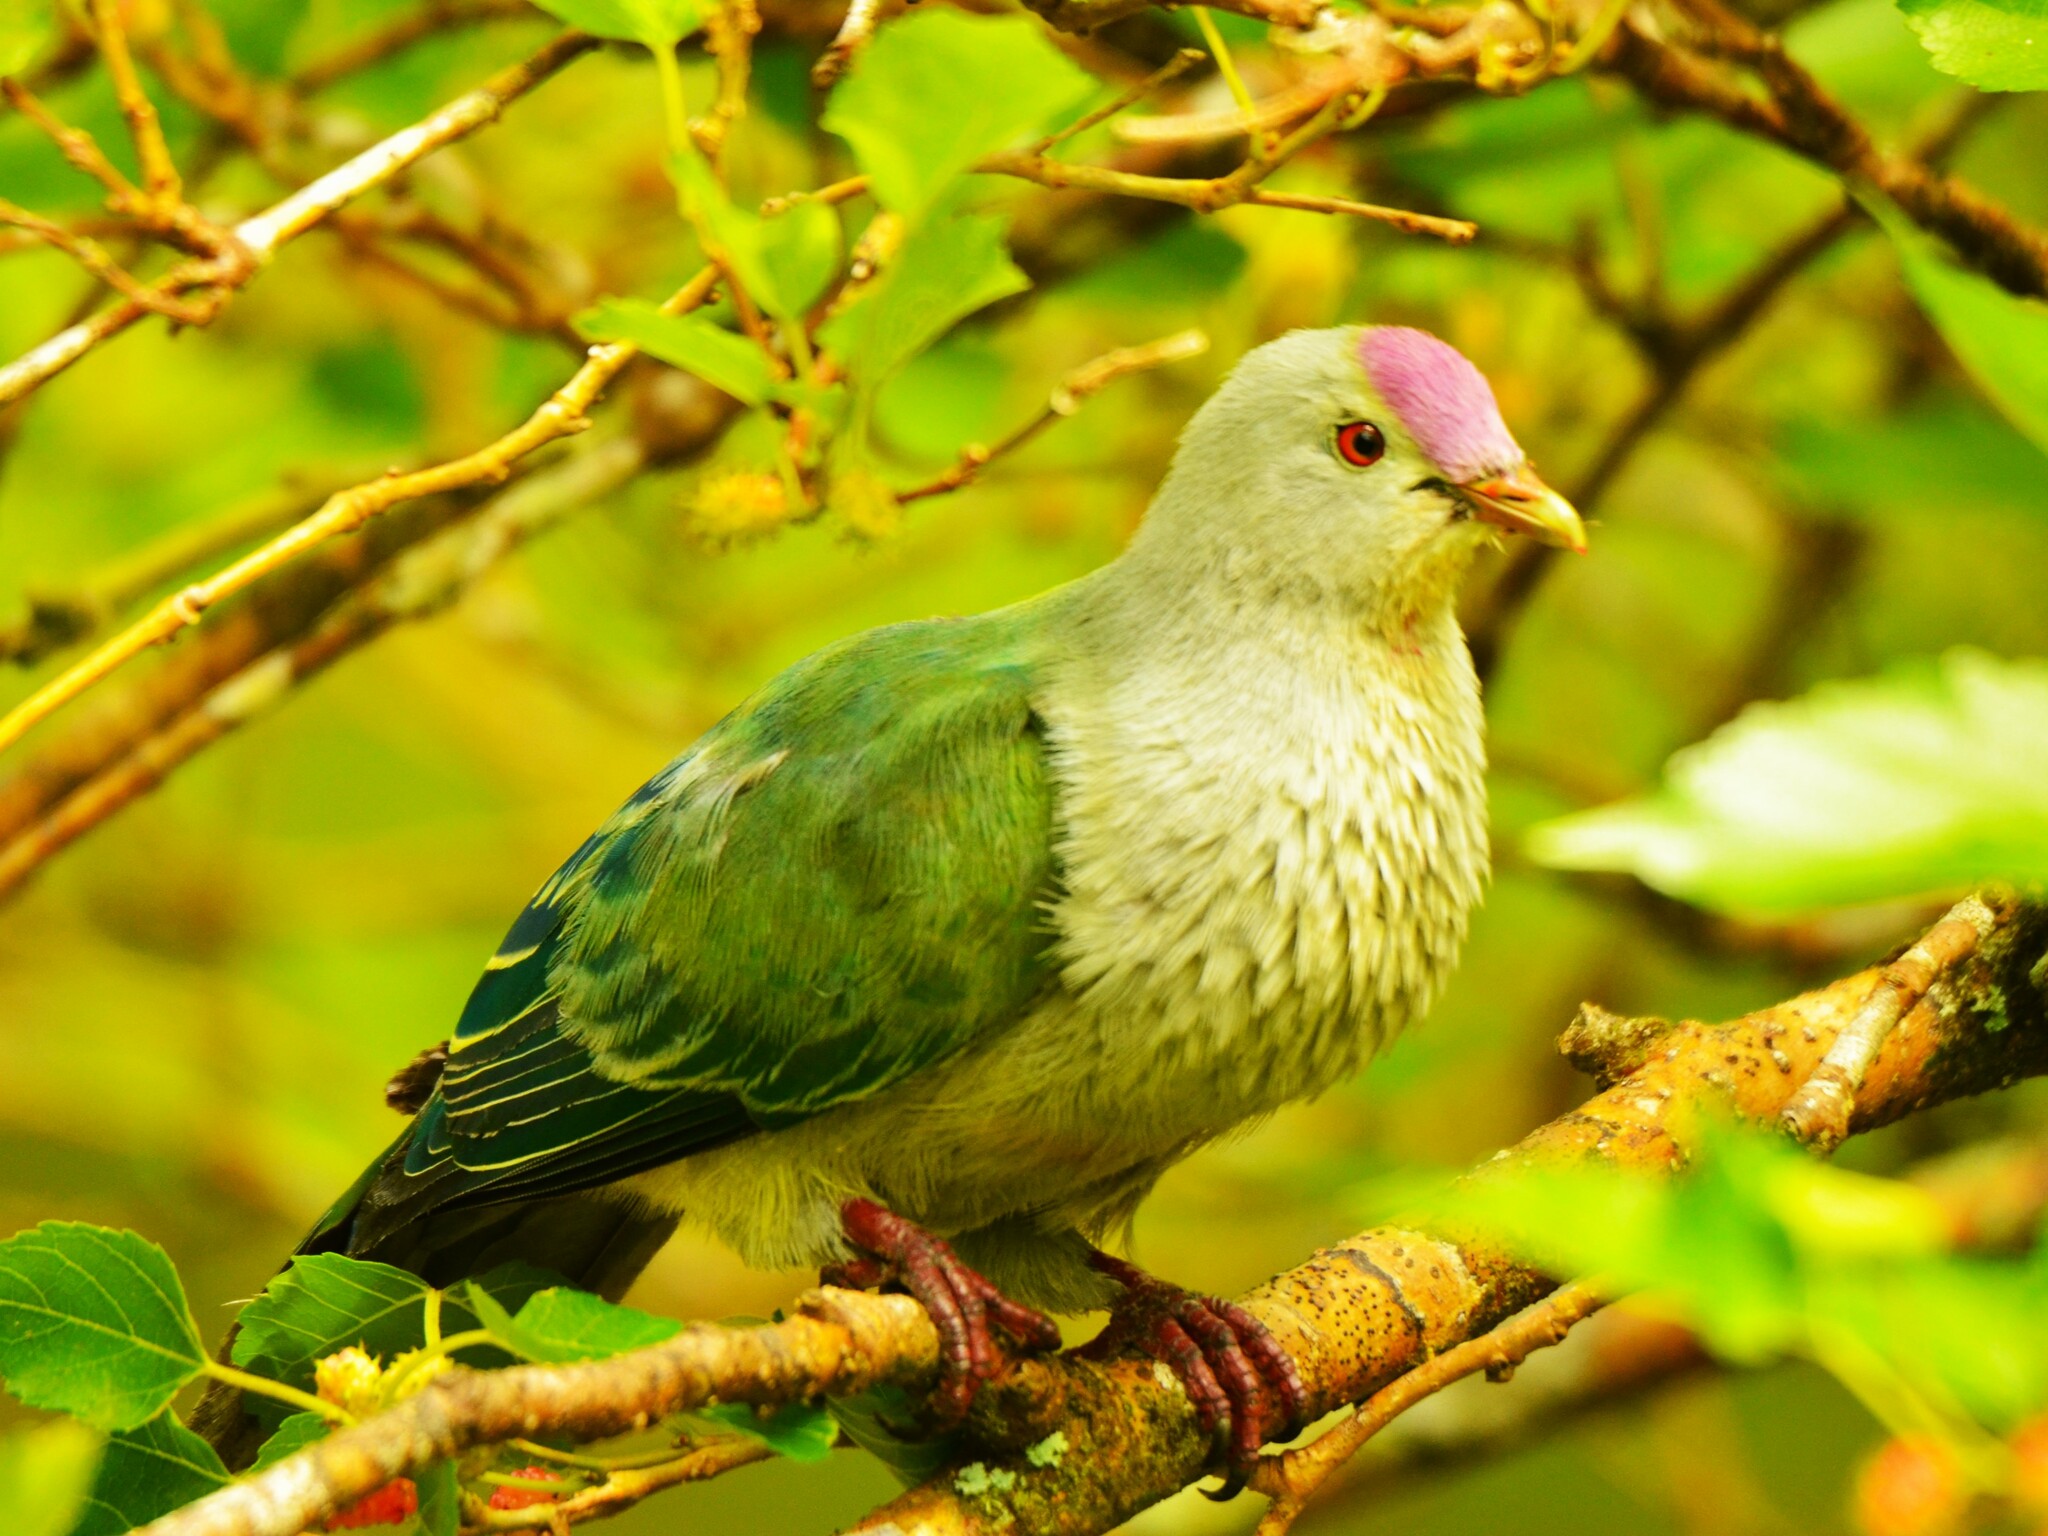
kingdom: Animalia
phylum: Chordata
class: Aves
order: Columbiformes
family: Columbidae
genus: Ptilinopus
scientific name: Ptilinopus rarotongensis
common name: Lilac-crowned fruit dove
